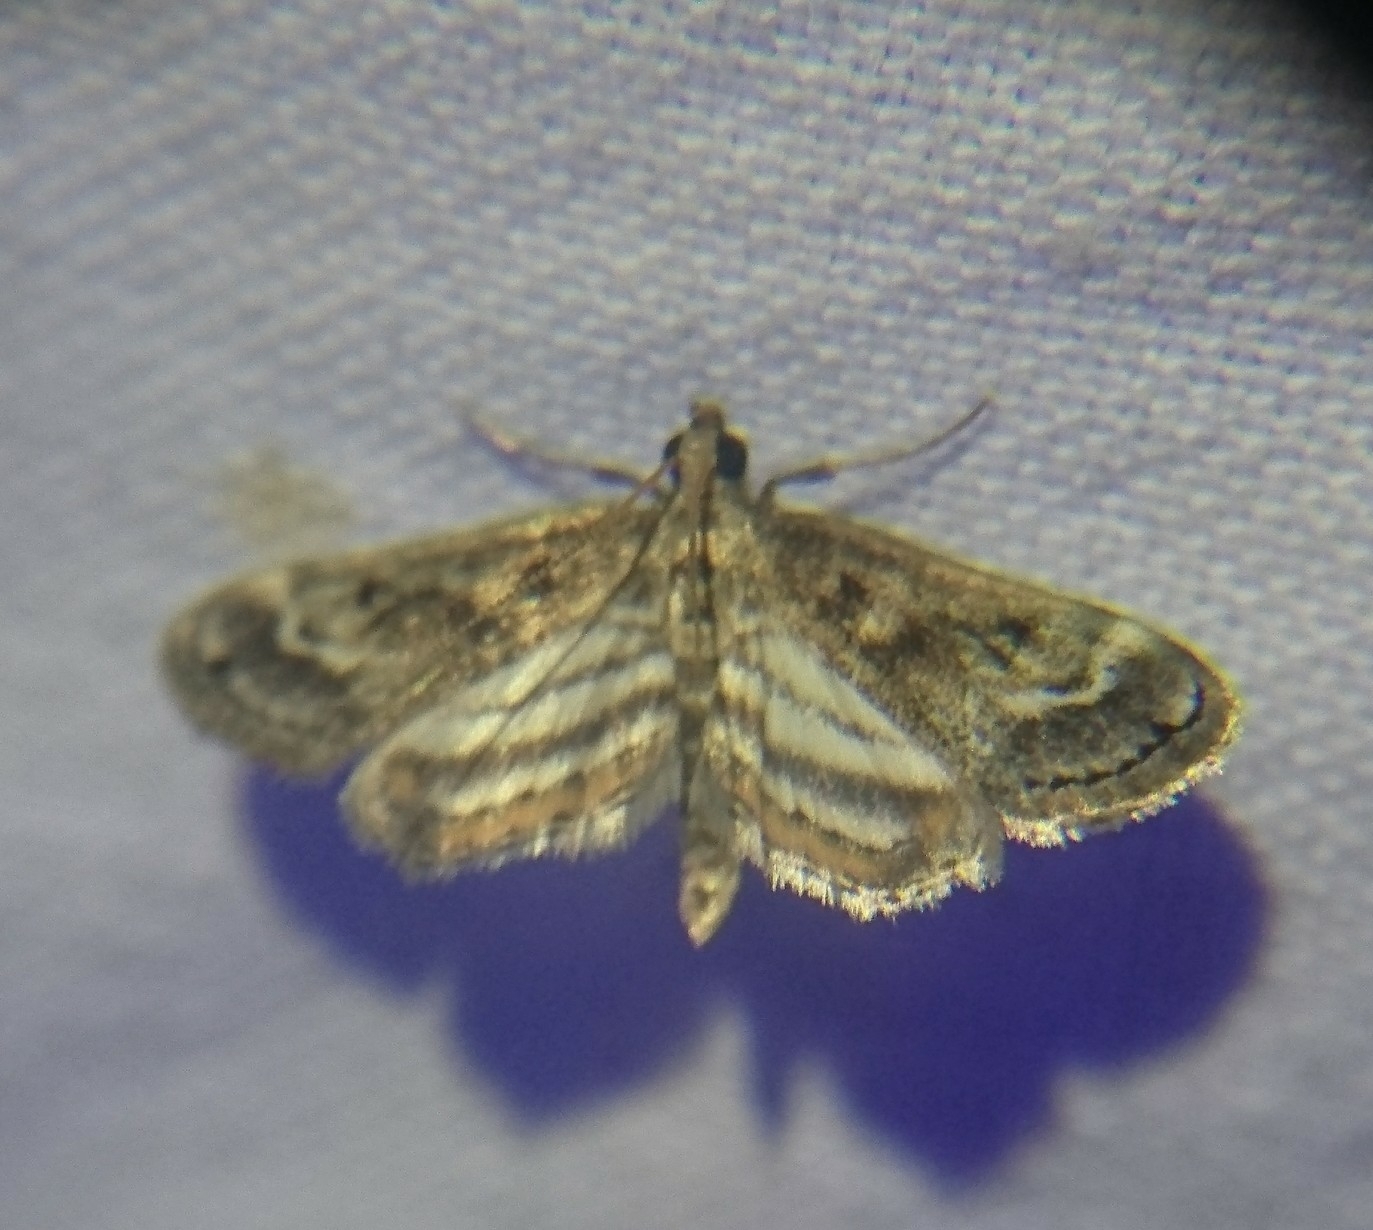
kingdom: Animalia
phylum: Arthropoda
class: Insecta
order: Lepidoptera
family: Crambidae
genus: Parapoynx
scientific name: Parapoynx obscuralis
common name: American china-mark
